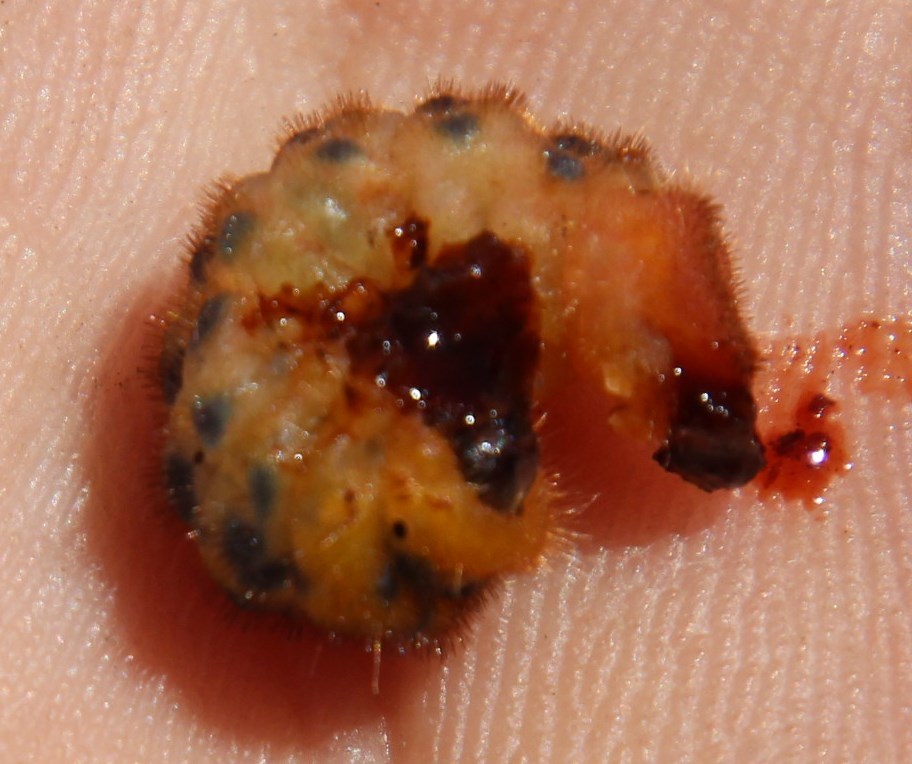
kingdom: Plantae
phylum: Tracheophyta
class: Magnoliopsida
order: Proteales
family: Proteaceae
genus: Protea
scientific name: Protea scorzonerifolia
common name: Channel-leaf sugarbush
